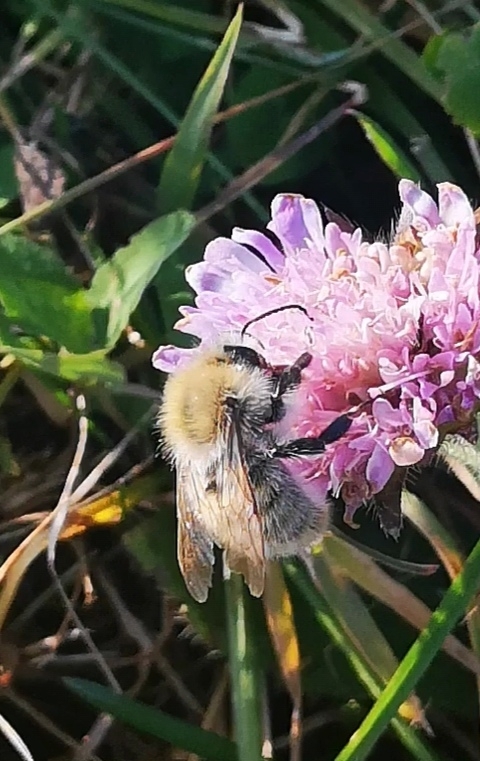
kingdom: Animalia
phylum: Arthropoda
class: Insecta
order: Hymenoptera
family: Apidae
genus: Bombus
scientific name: Bombus pascuorum
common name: Common carder bee
